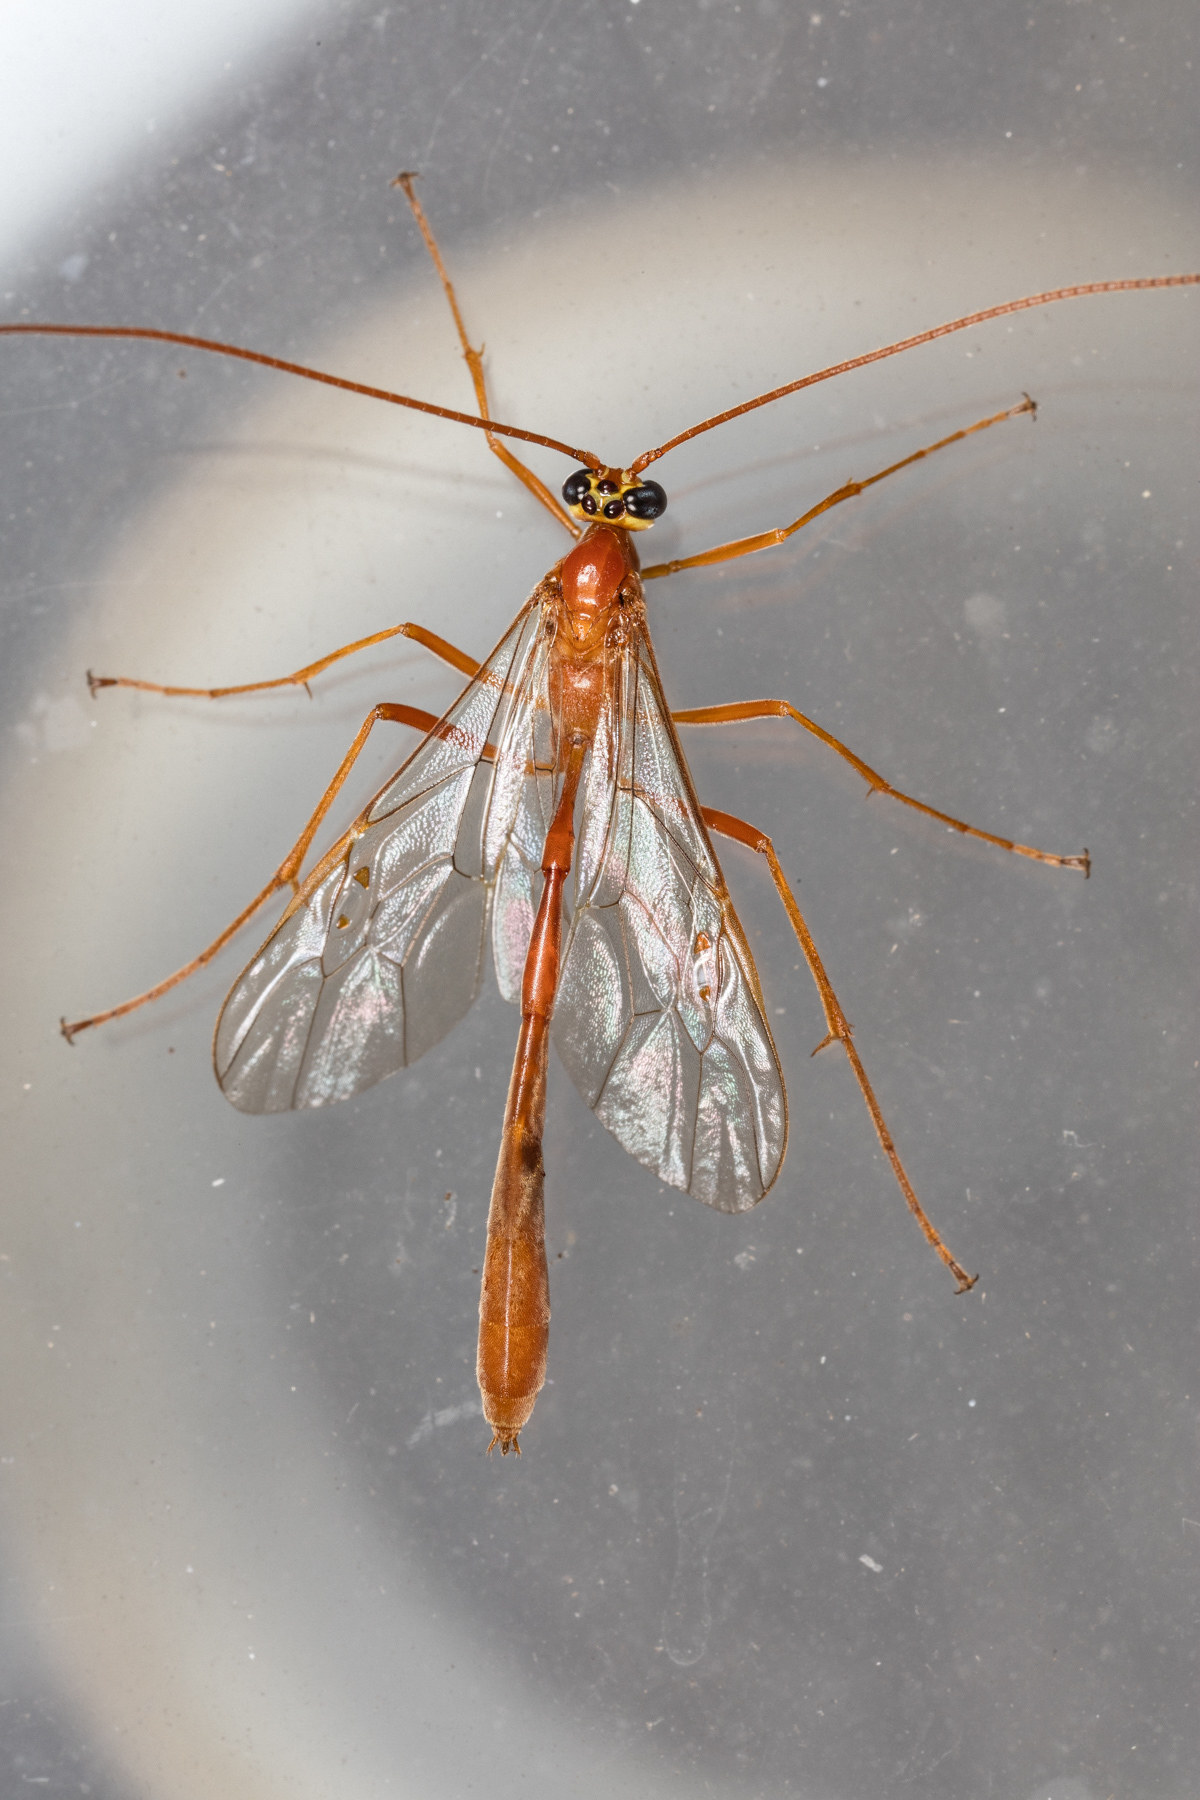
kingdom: Animalia
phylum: Arthropoda
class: Insecta
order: Hymenoptera
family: Ichneumonidae
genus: Enicospilus
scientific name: Enicospilus purgatus
